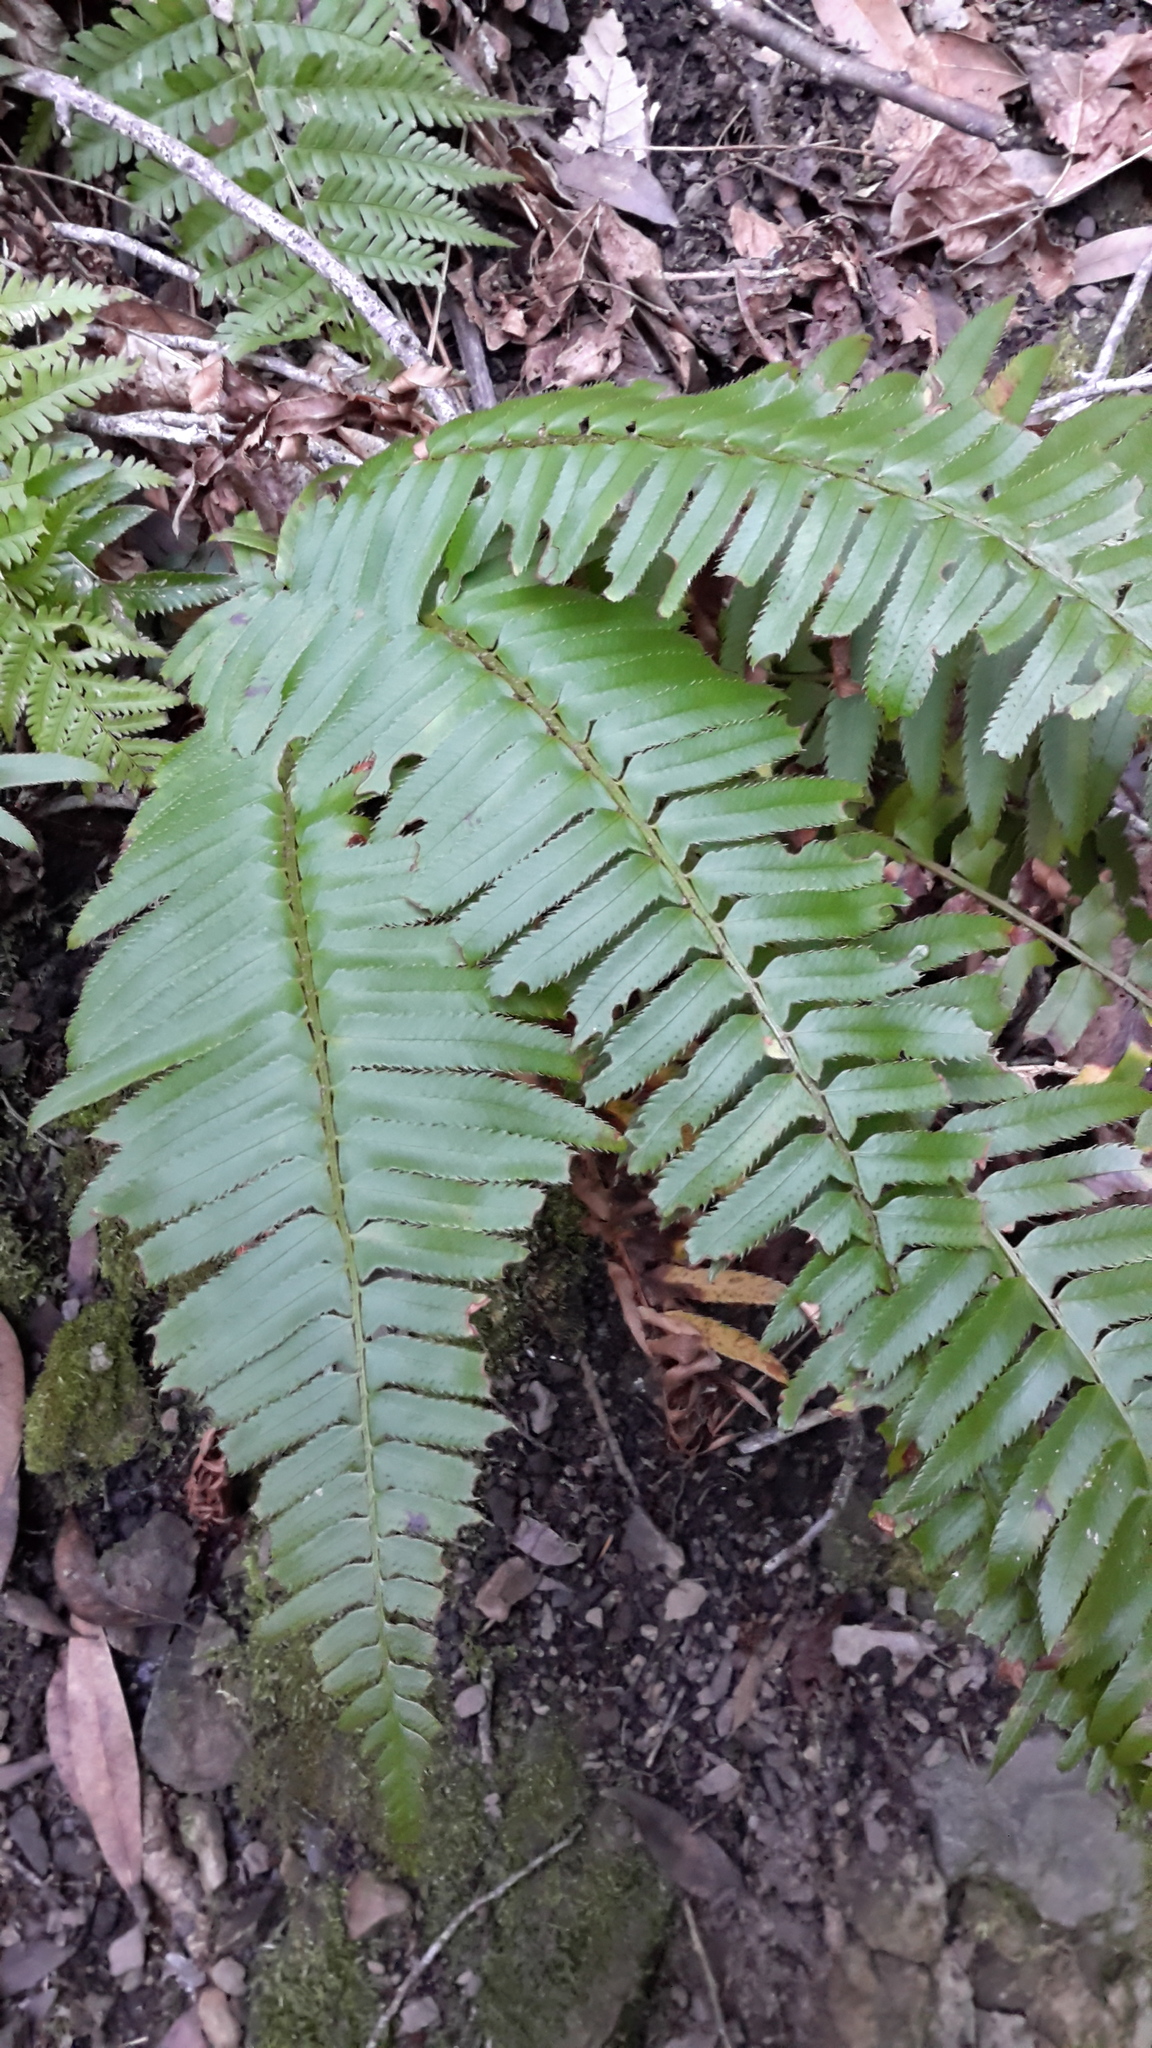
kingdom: Plantae
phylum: Tracheophyta
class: Polypodiopsida
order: Polypodiales
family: Dryopteridaceae
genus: Polystichum
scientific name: Polystichum munitum
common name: Western sword-fern
